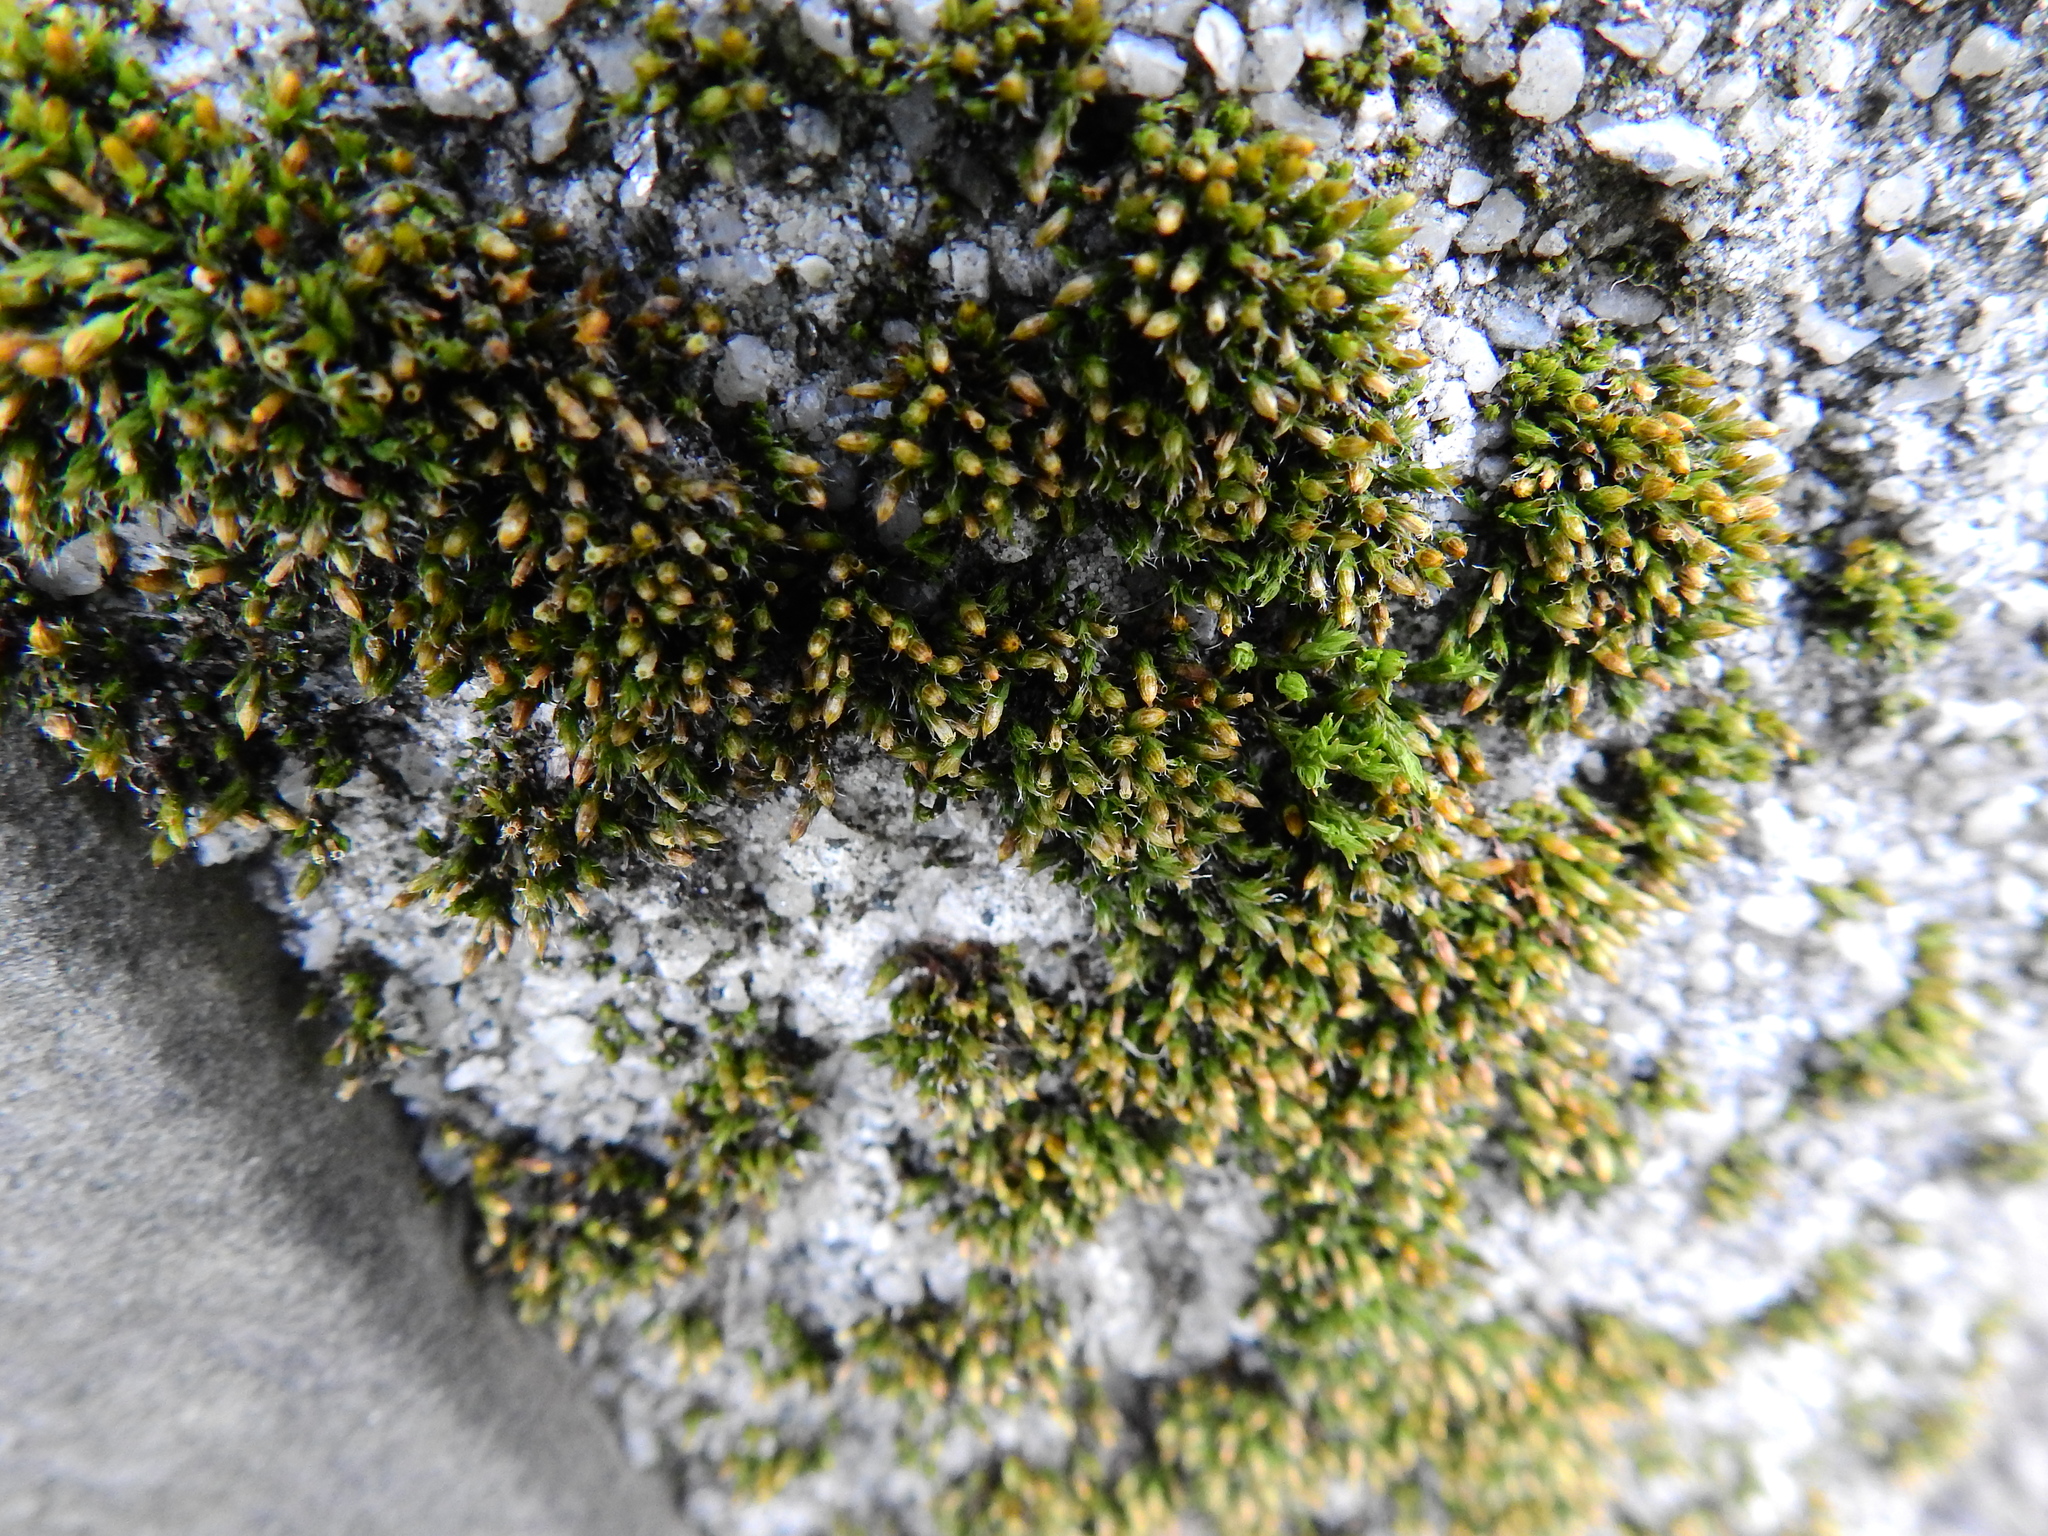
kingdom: Plantae
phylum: Bryophyta
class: Bryopsida
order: Orthotrichales
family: Orthotrichaceae
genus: Orthotrichum
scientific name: Orthotrichum diaphanum
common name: White-tipped bristle-moss
